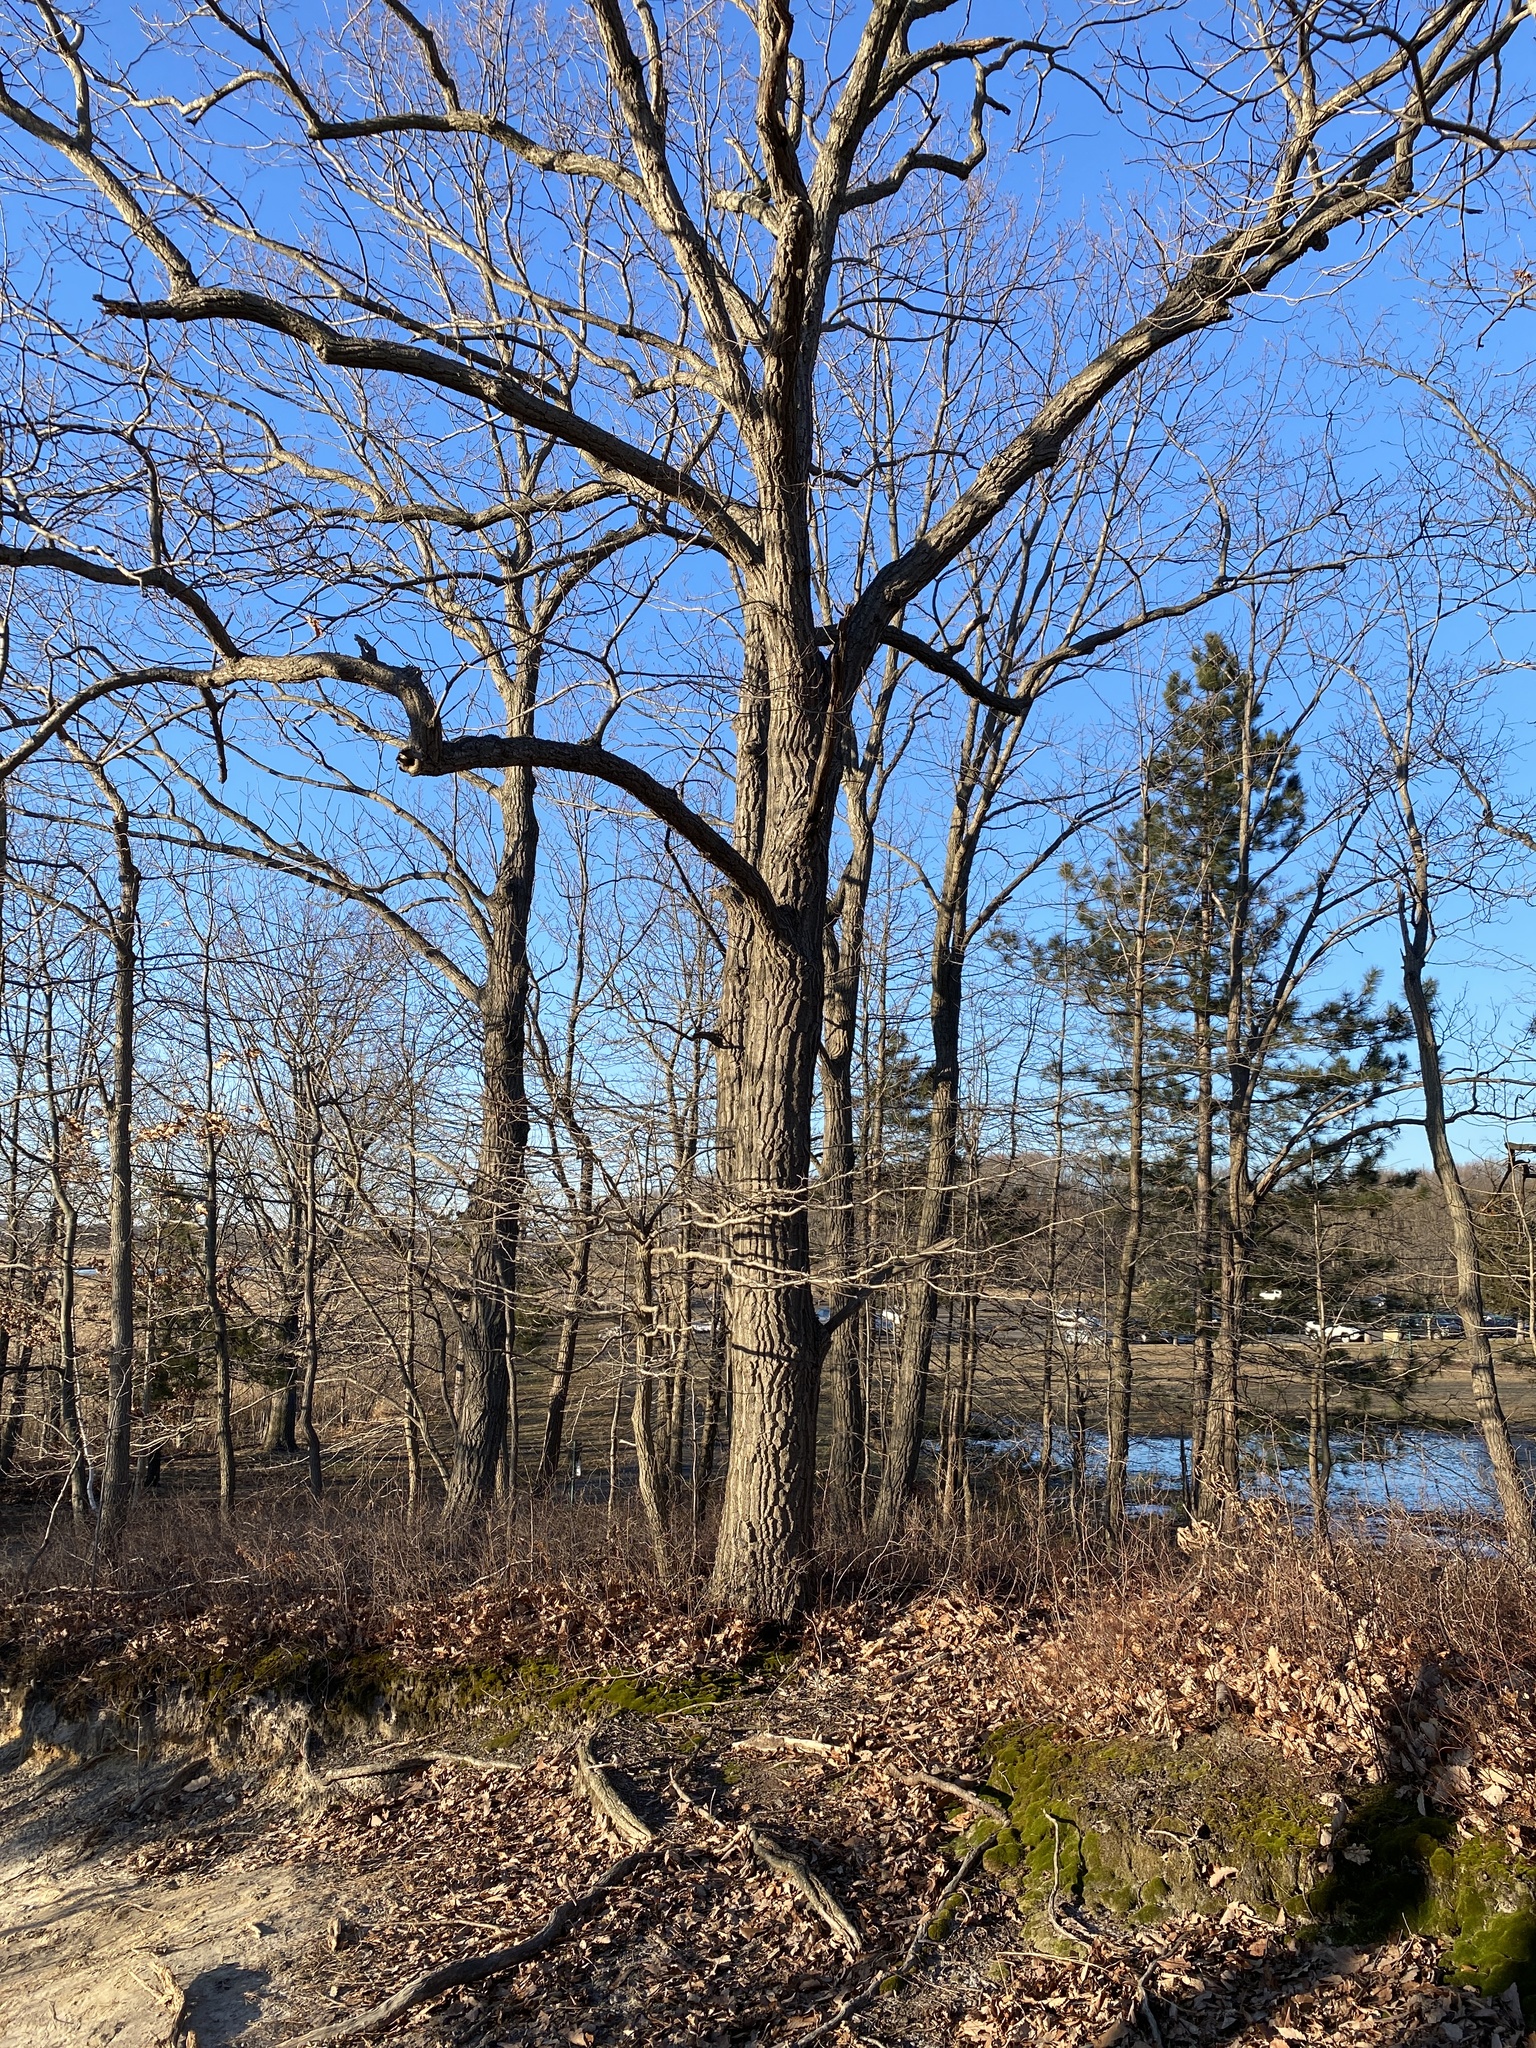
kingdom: Plantae
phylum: Tracheophyta
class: Magnoliopsida
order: Fagales
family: Fagaceae
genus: Quercus
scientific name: Quercus montana
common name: Chestnut oak
